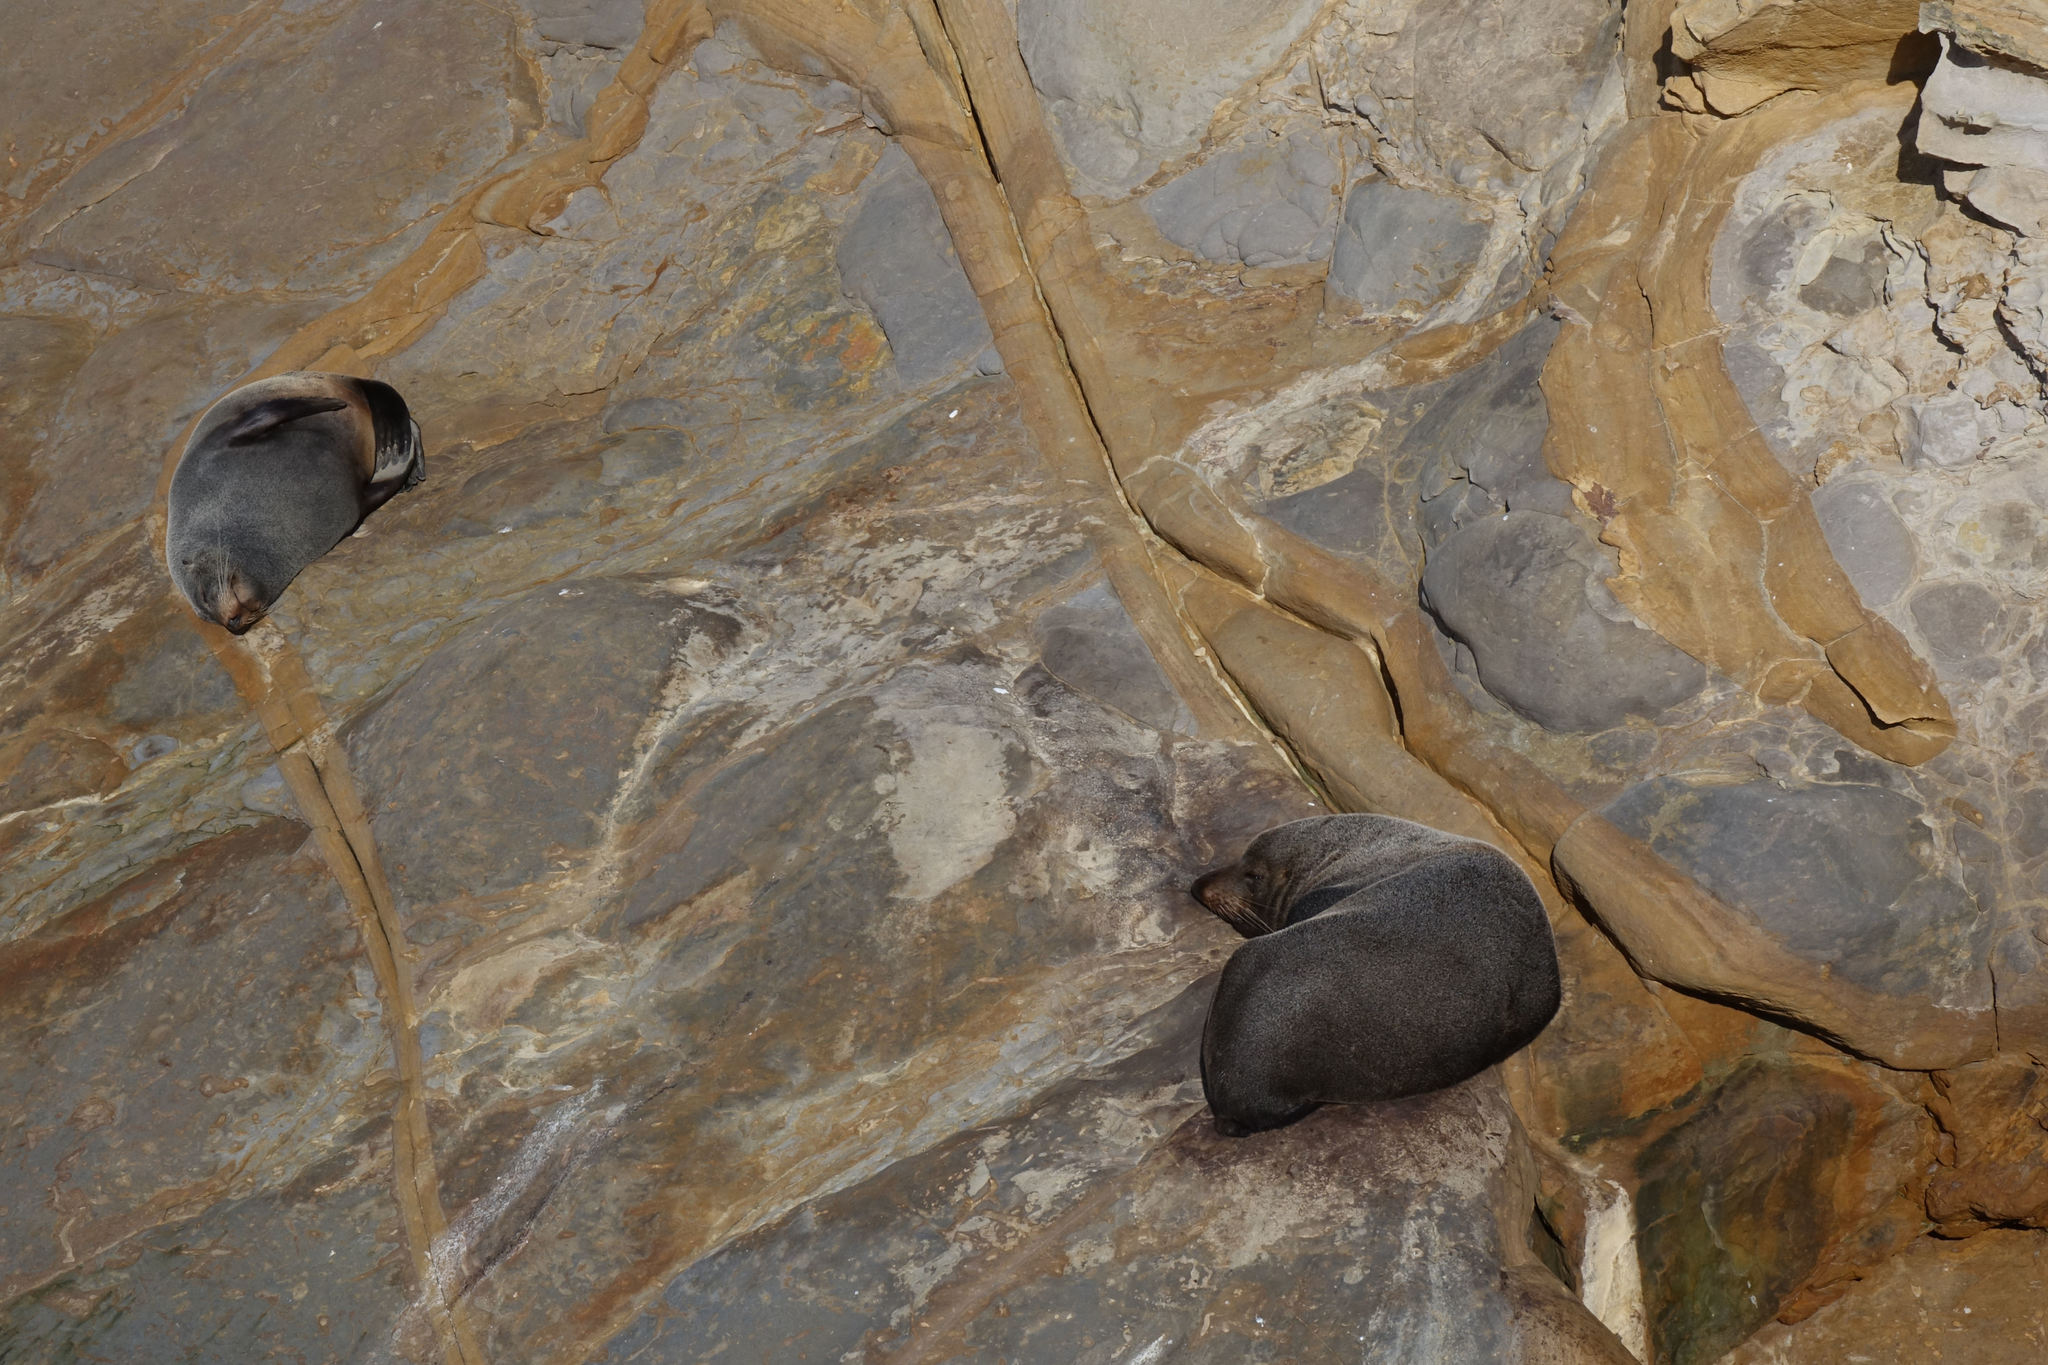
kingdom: Animalia
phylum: Chordata
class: Mammalia
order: Carnivora
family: Otariidae
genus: Arctocephalus
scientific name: Arctocephalus forsteri
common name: New zealand fur seal
